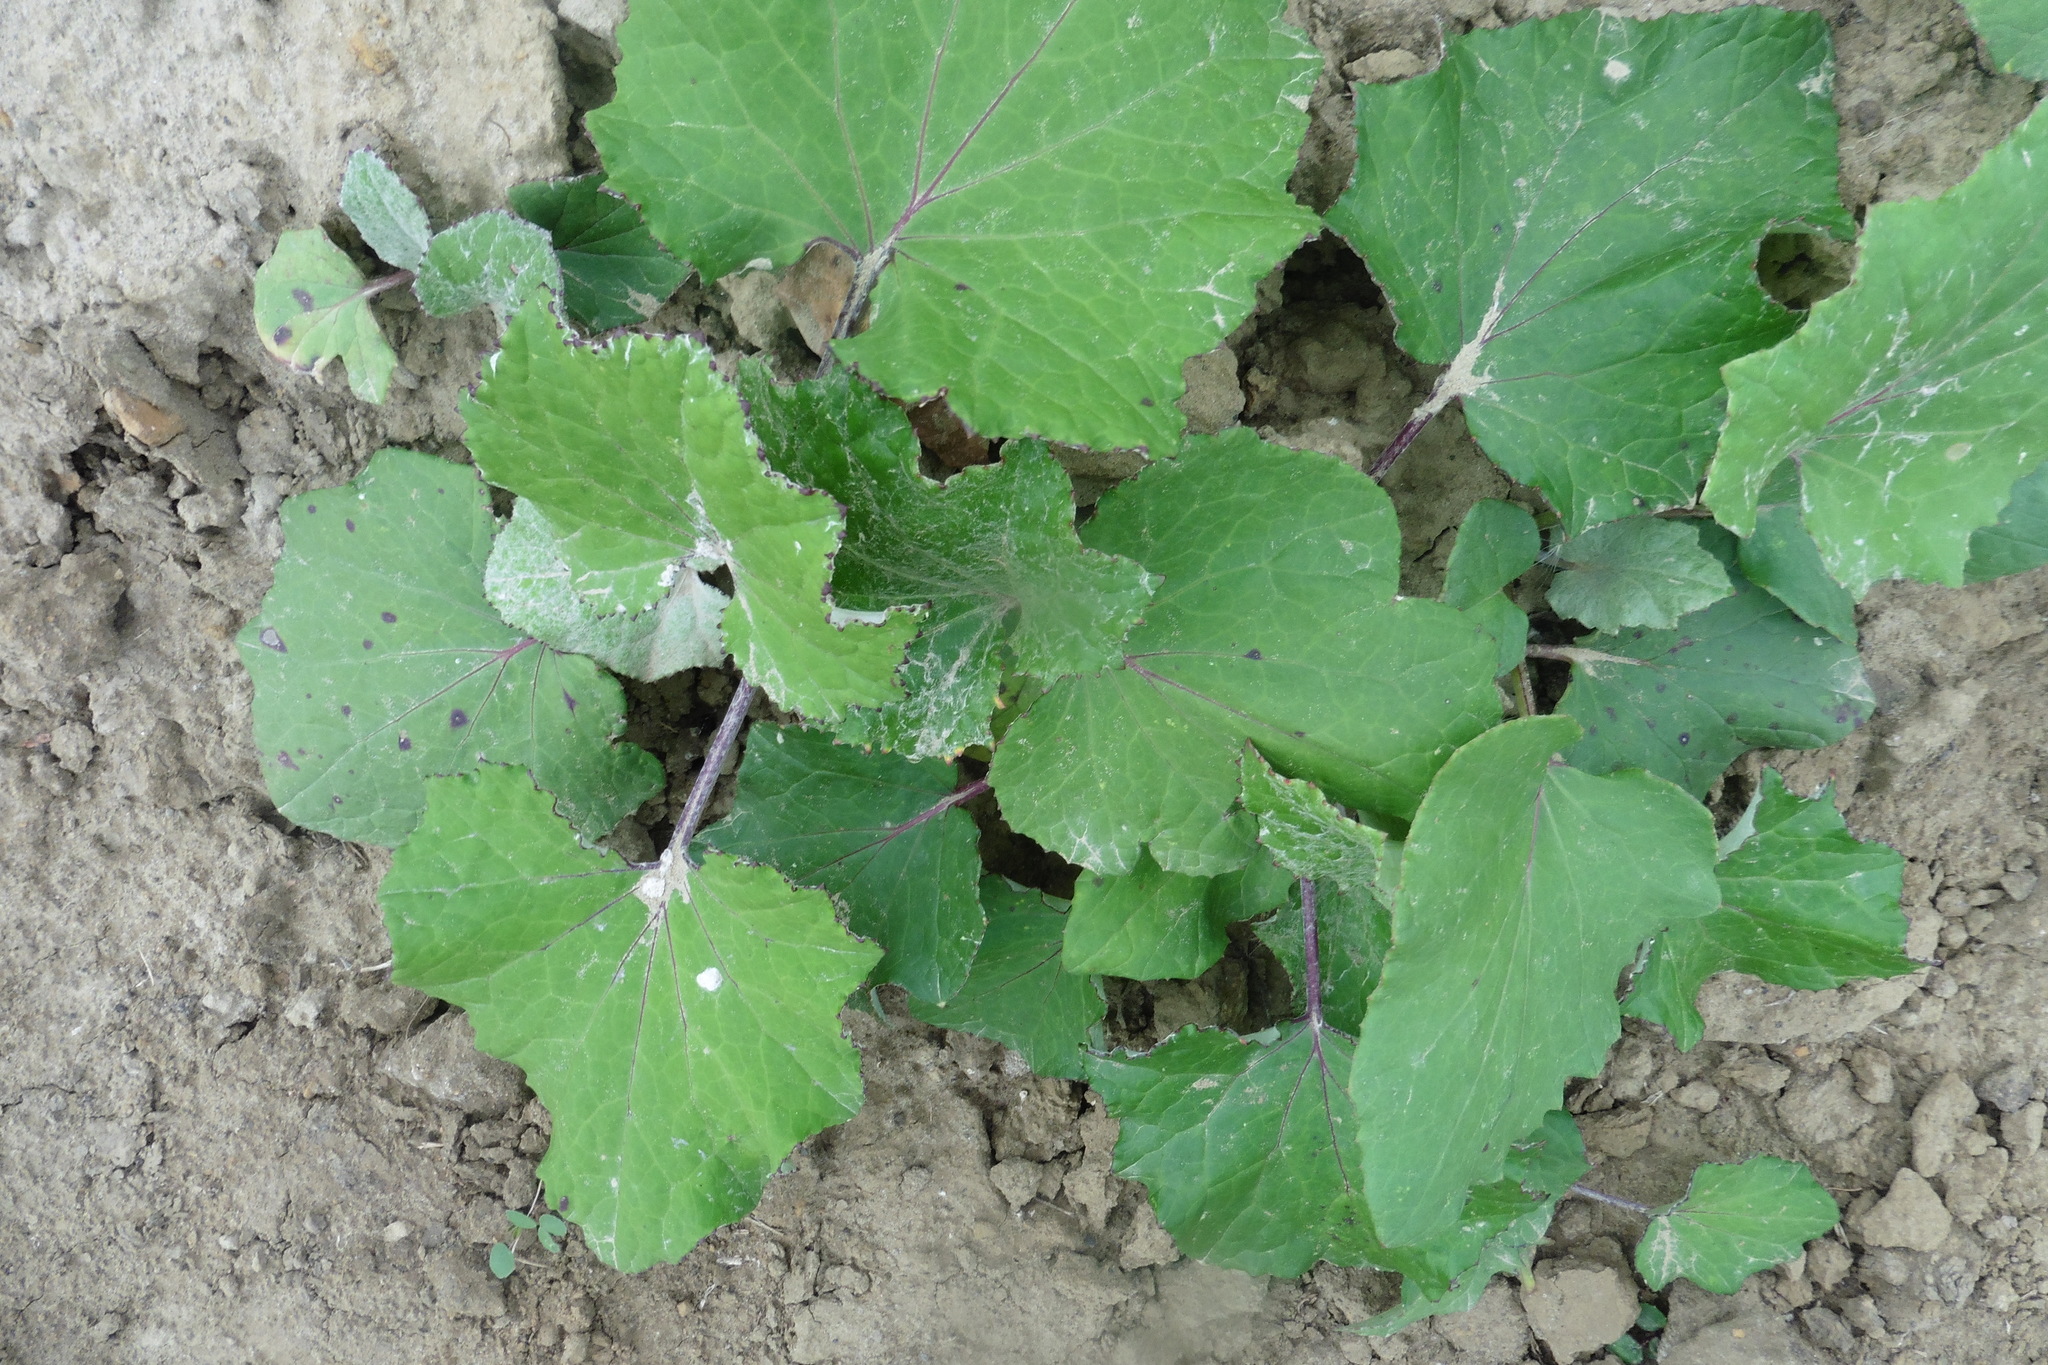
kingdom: Plantae
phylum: Tracheophyta
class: Magnoliopsida
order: Asterales
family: Asteraceae
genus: Tussilago
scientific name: Tussilago farfara
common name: Coltsfoot
